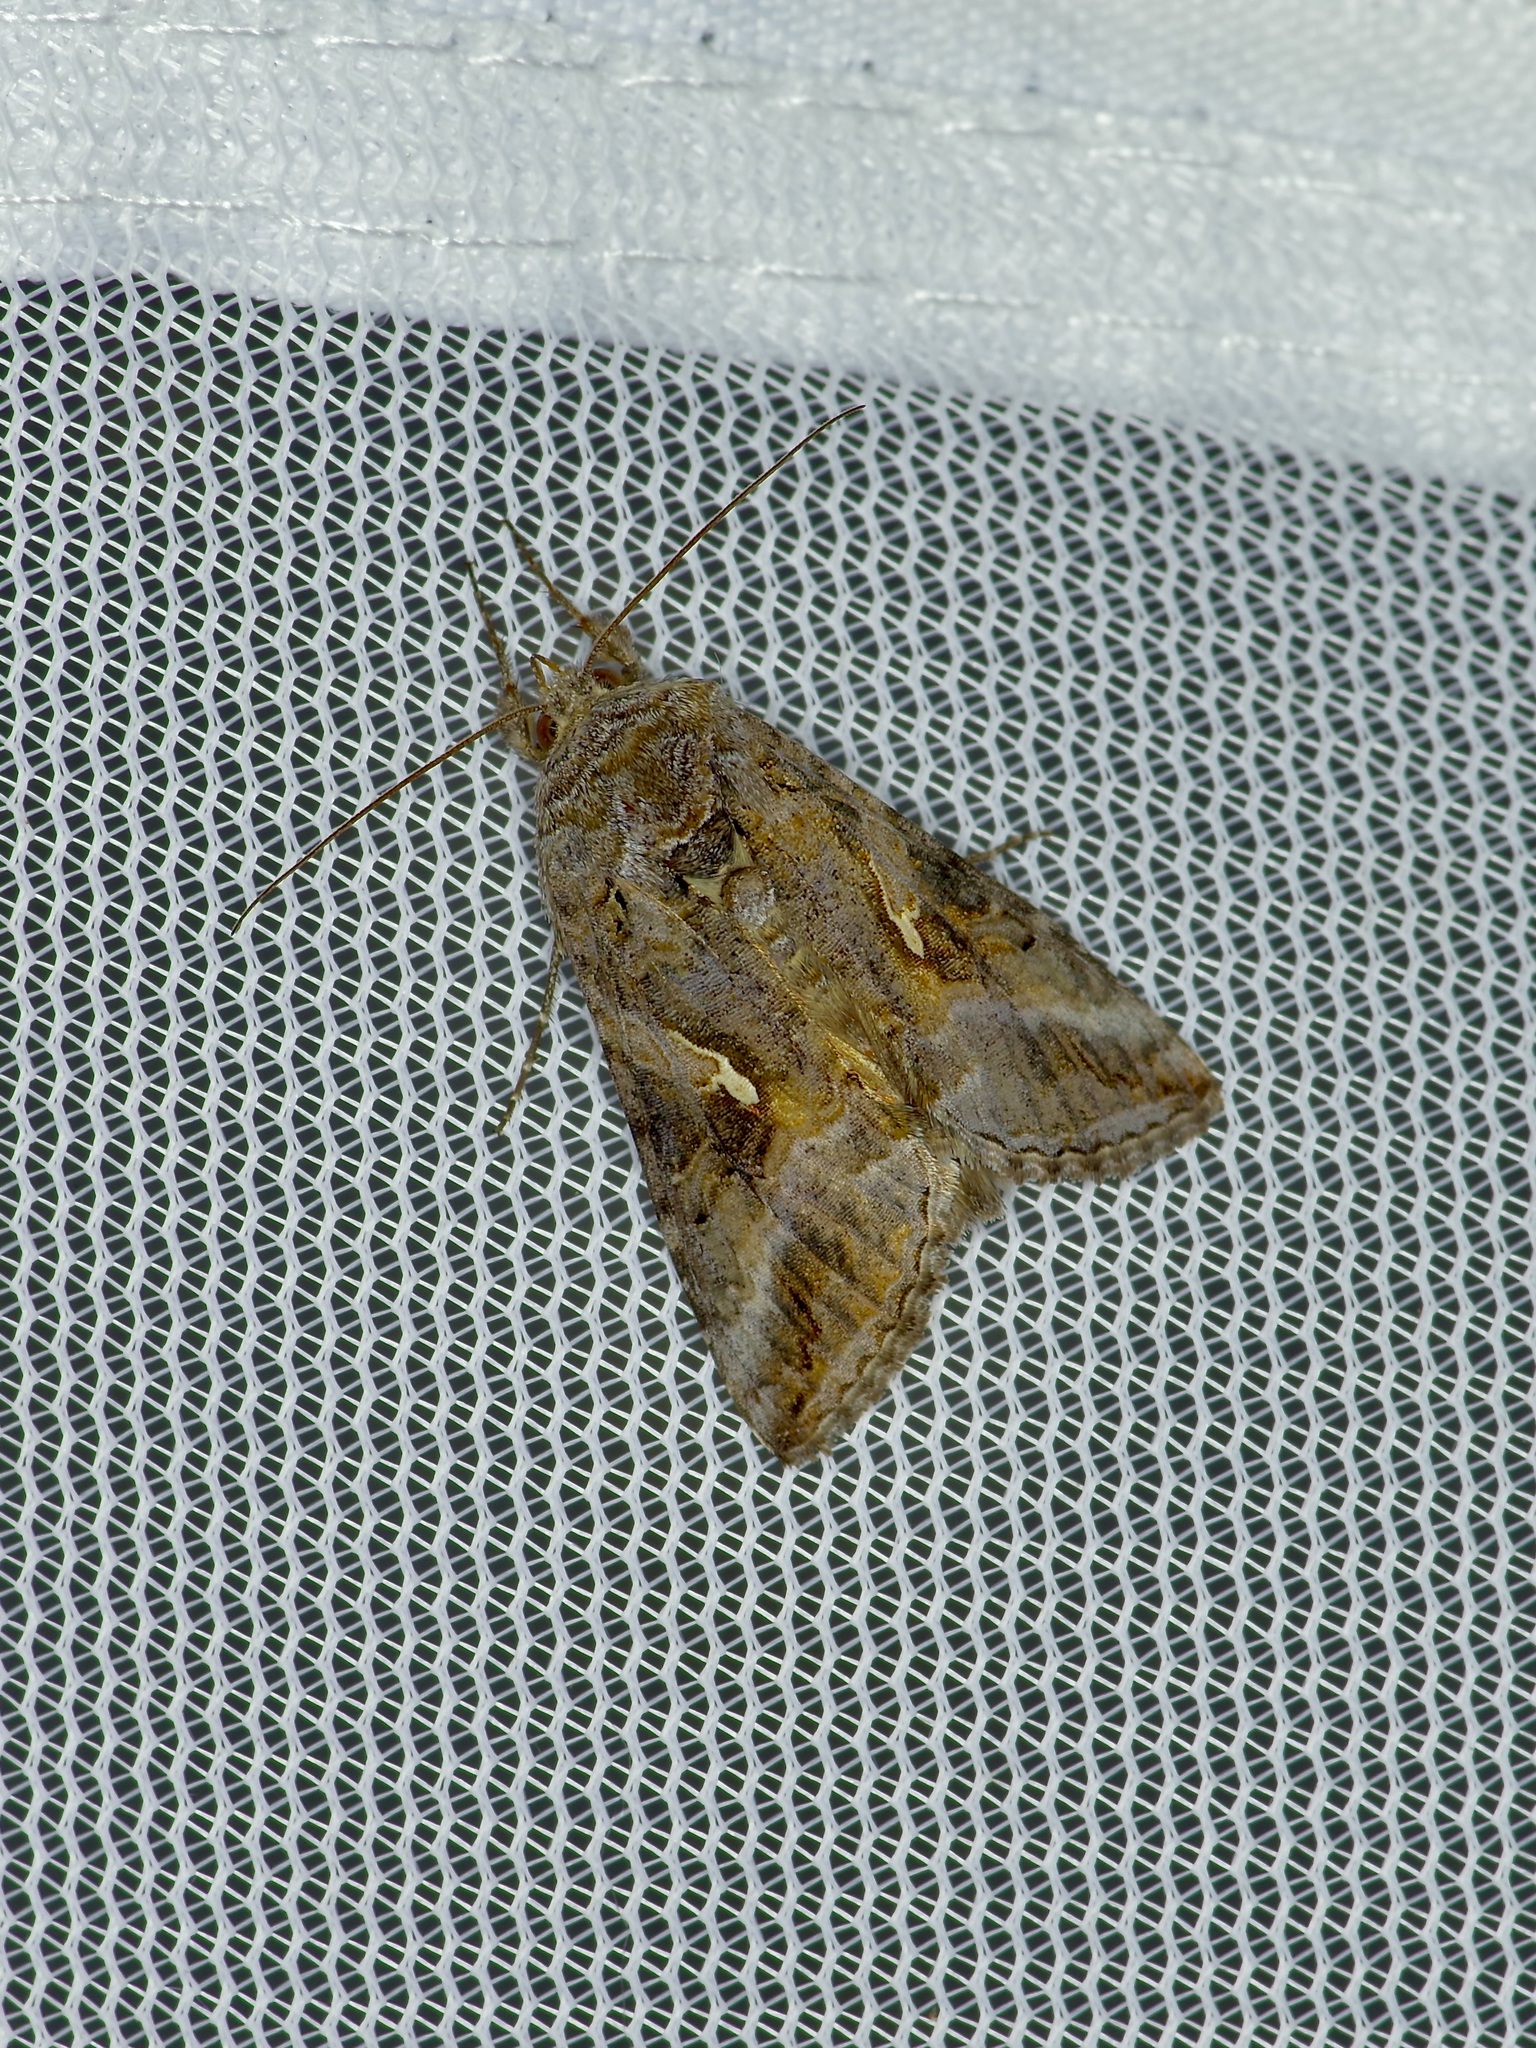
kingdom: Animalia
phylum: Arthropoda
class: Insecta
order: Lepidoptera
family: Noctuidae
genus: Rachiplusia
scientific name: Rachiplusia ou
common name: Gray looper moth
